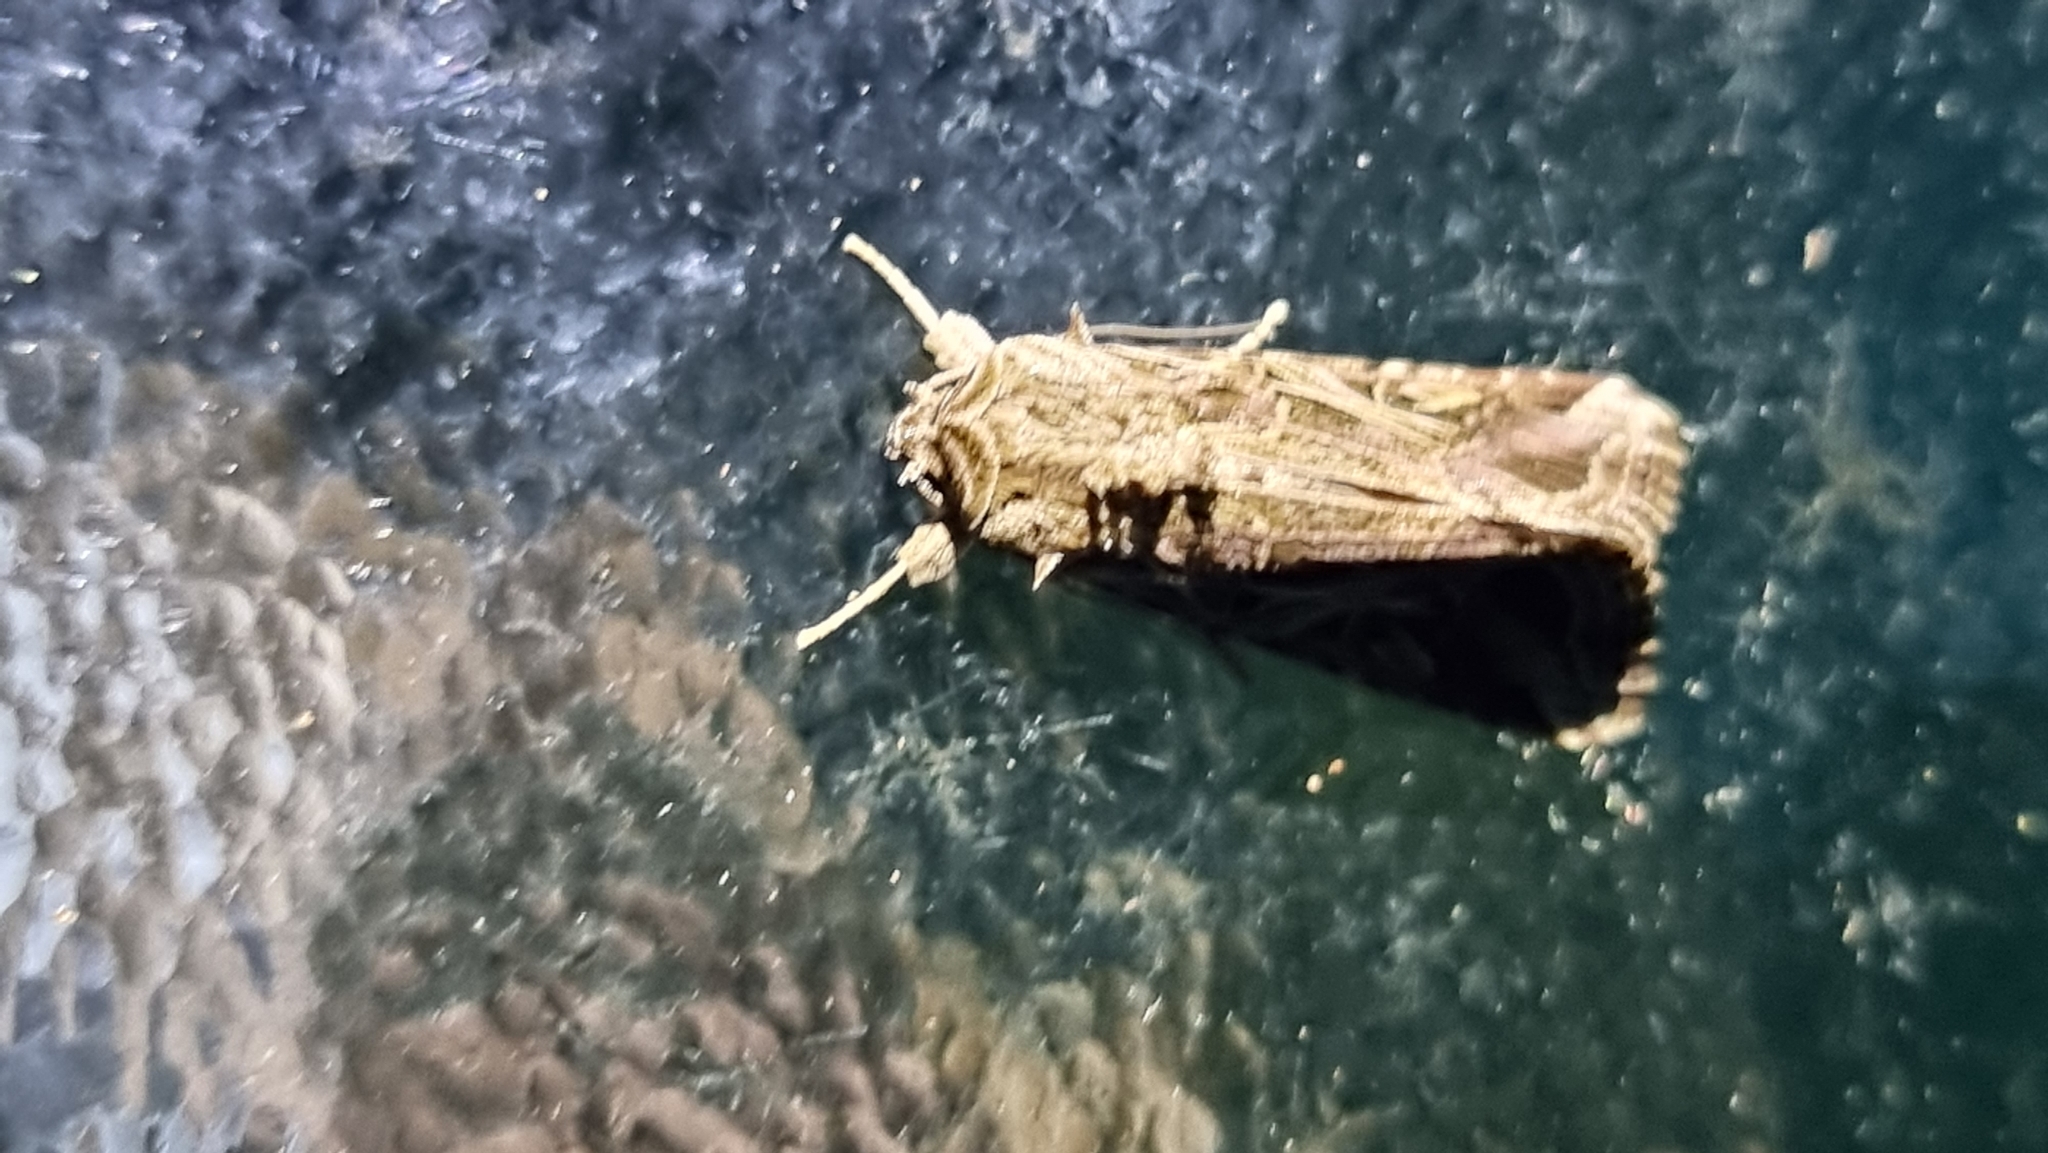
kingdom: Animalia
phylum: Arthropoda
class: Insecta
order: Lepidoptera
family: Noctuidae
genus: Spodoptera
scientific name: Spodoptera litura
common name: Asian cotton leafworm
